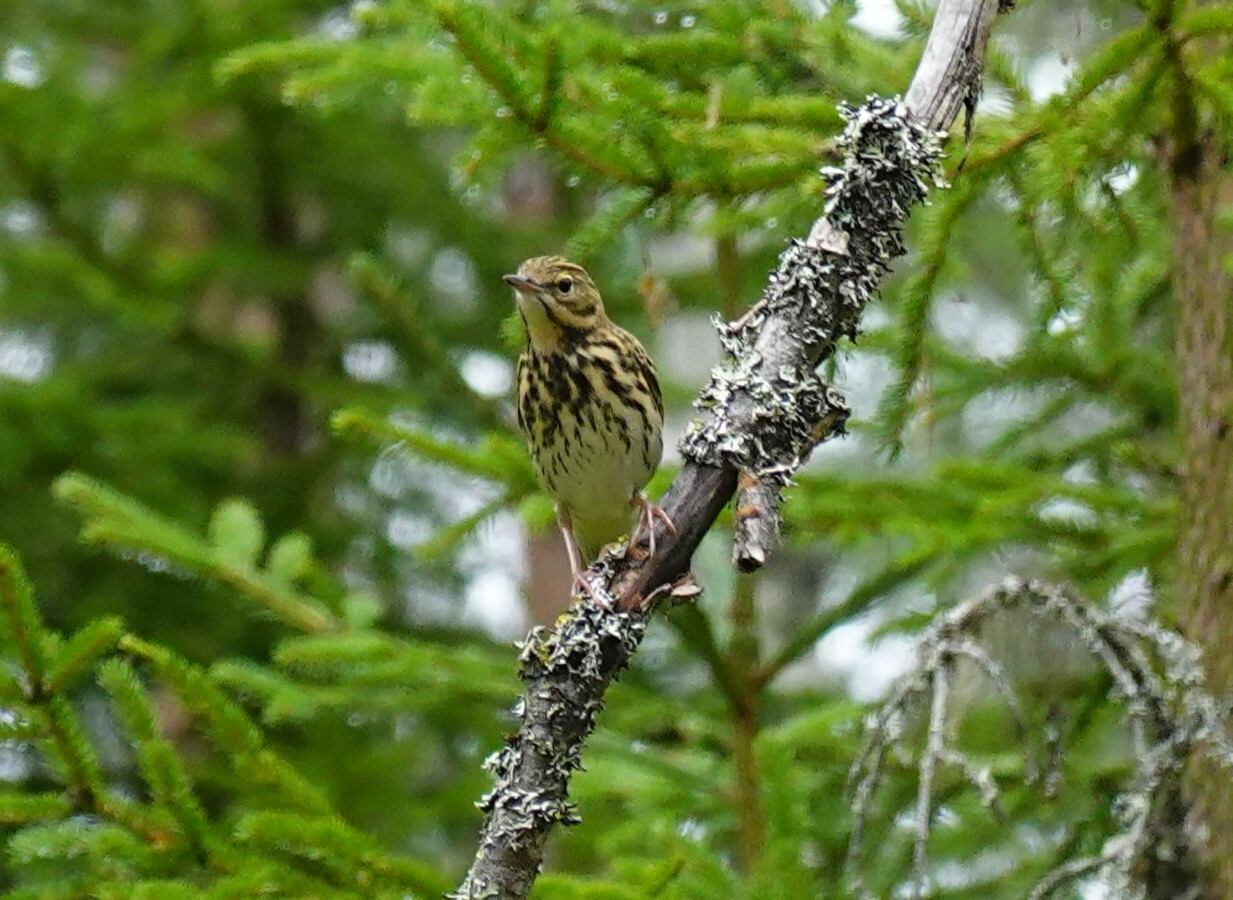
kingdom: Animalia
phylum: Chordata
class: Aves
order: Passeriformes
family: Motacillidae
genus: Anthus
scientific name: Anthus trivialis
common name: Tree pipit
